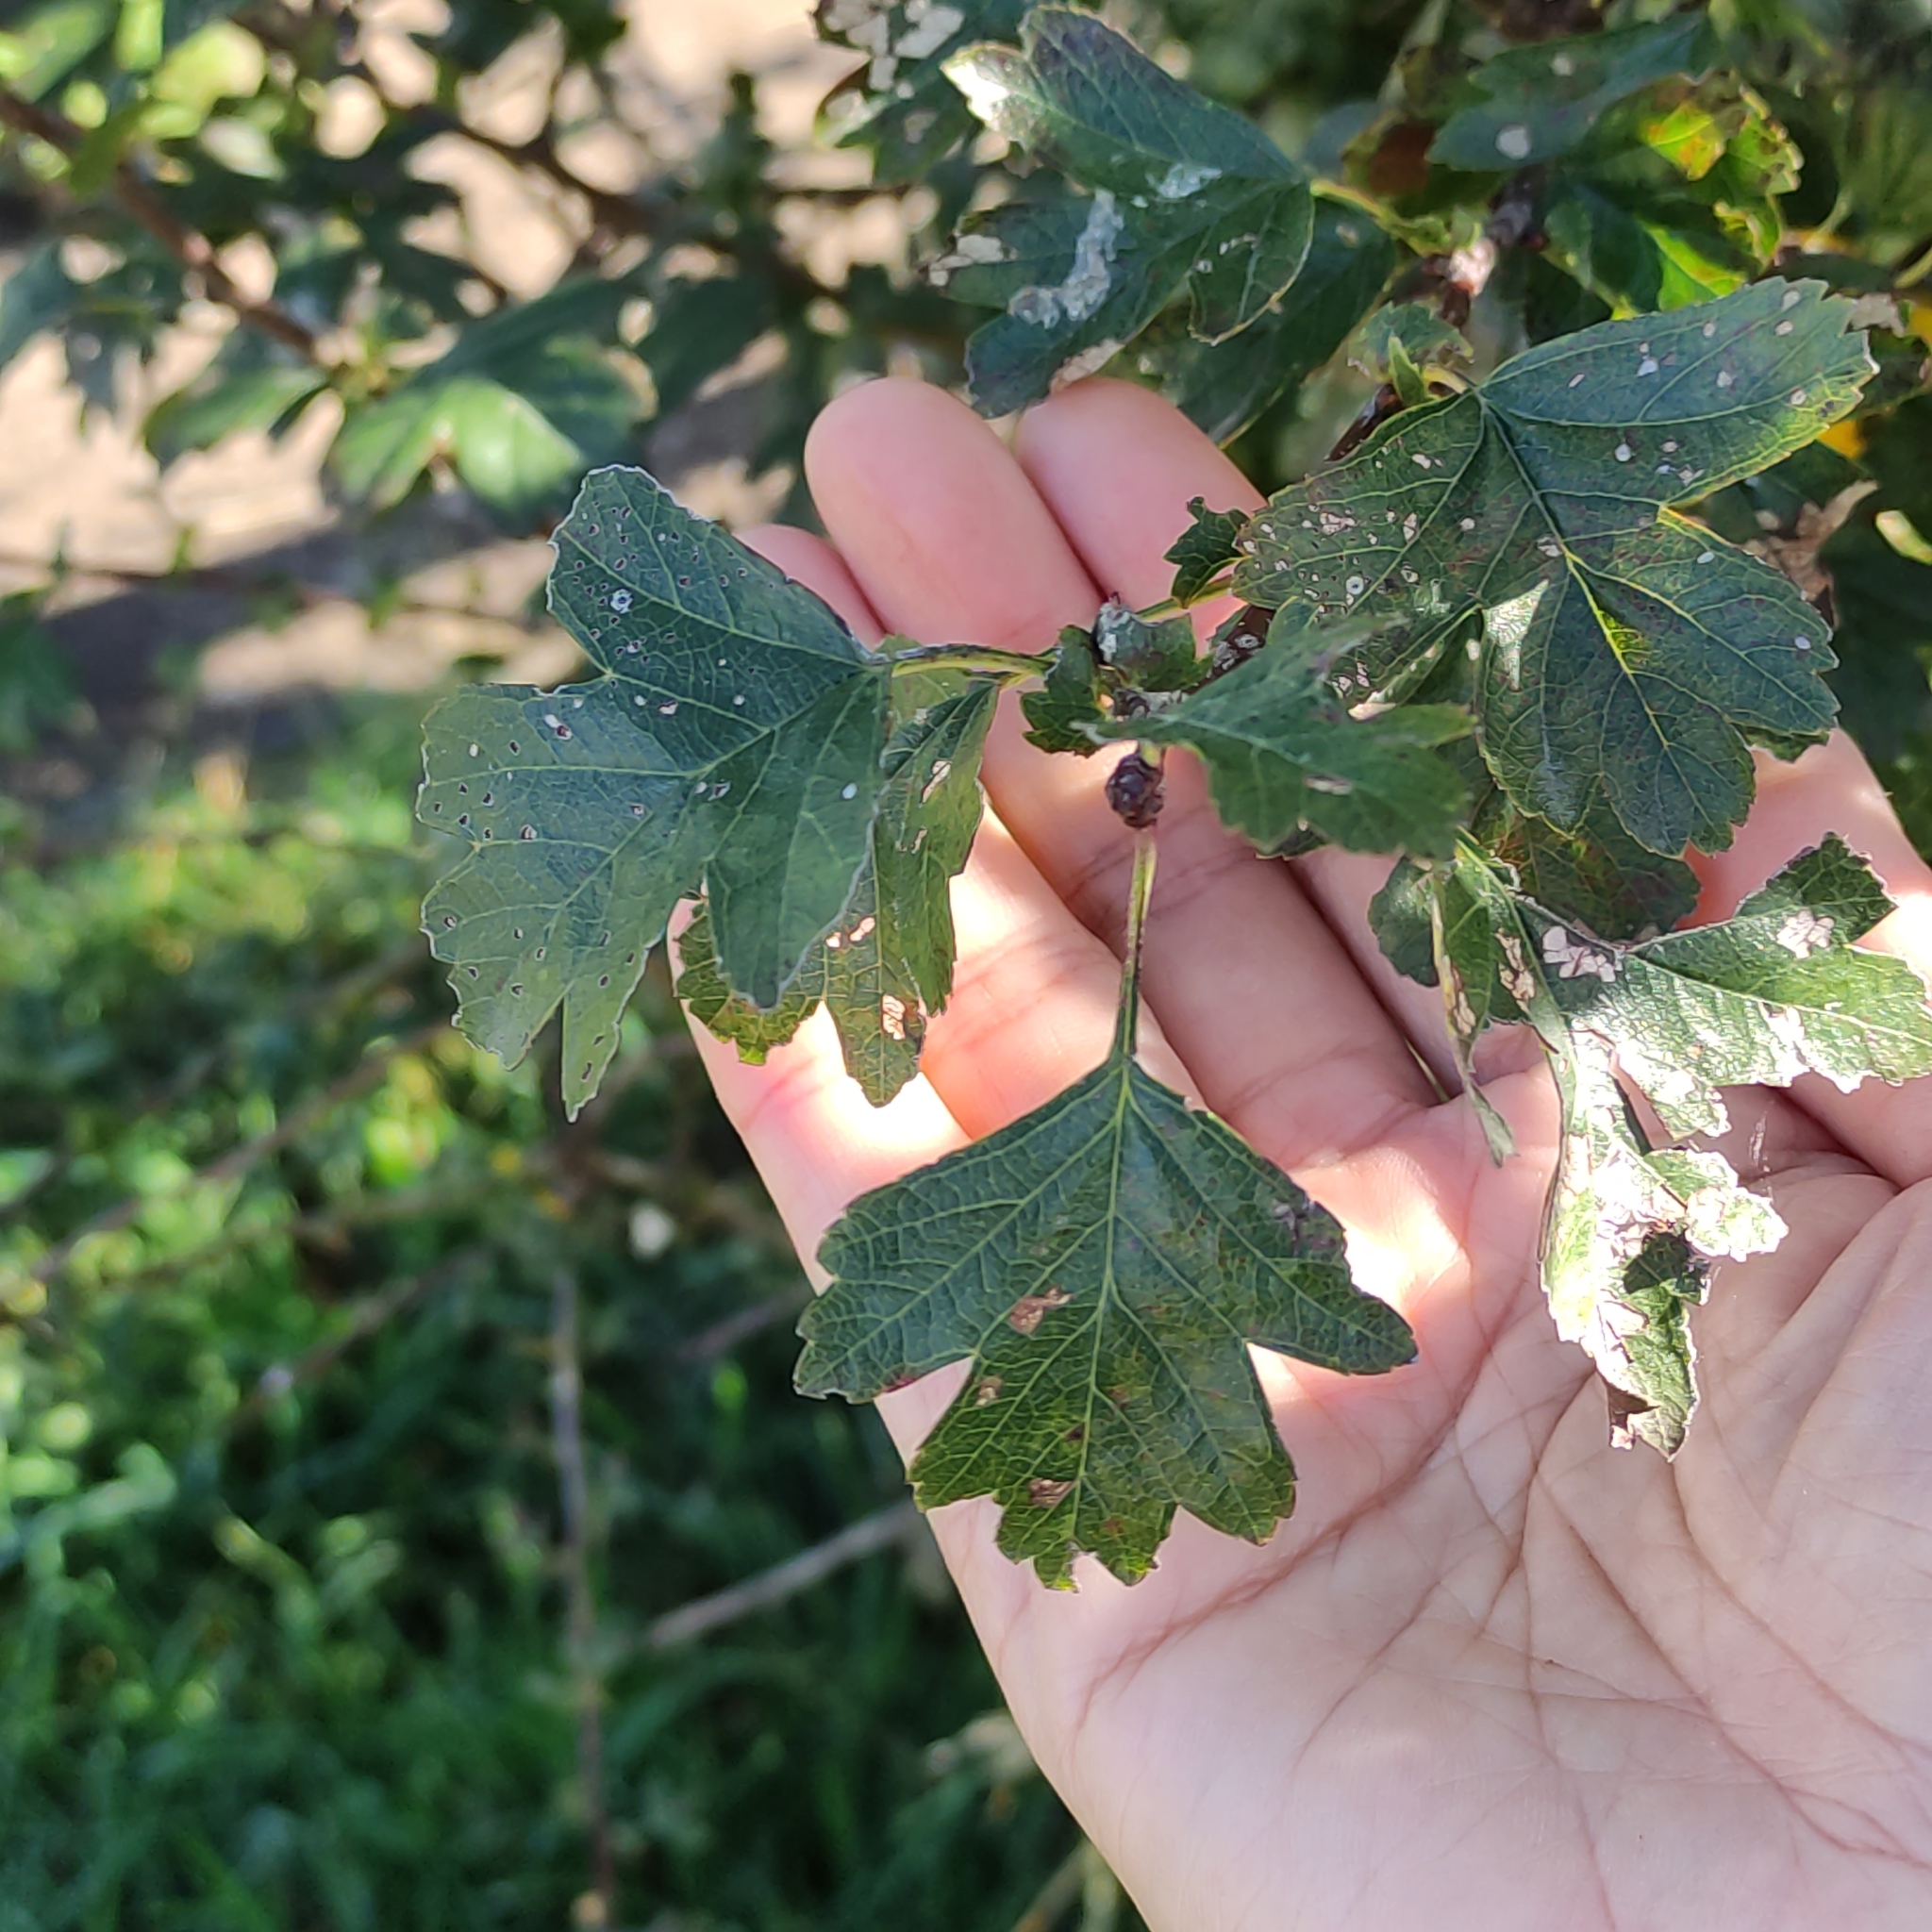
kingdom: Plantae
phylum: Tracheophyta
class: Magnoliopsida
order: Rosales
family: Rosaceae
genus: Crataegus
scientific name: Crataegus monogyna
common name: Hawthorn
